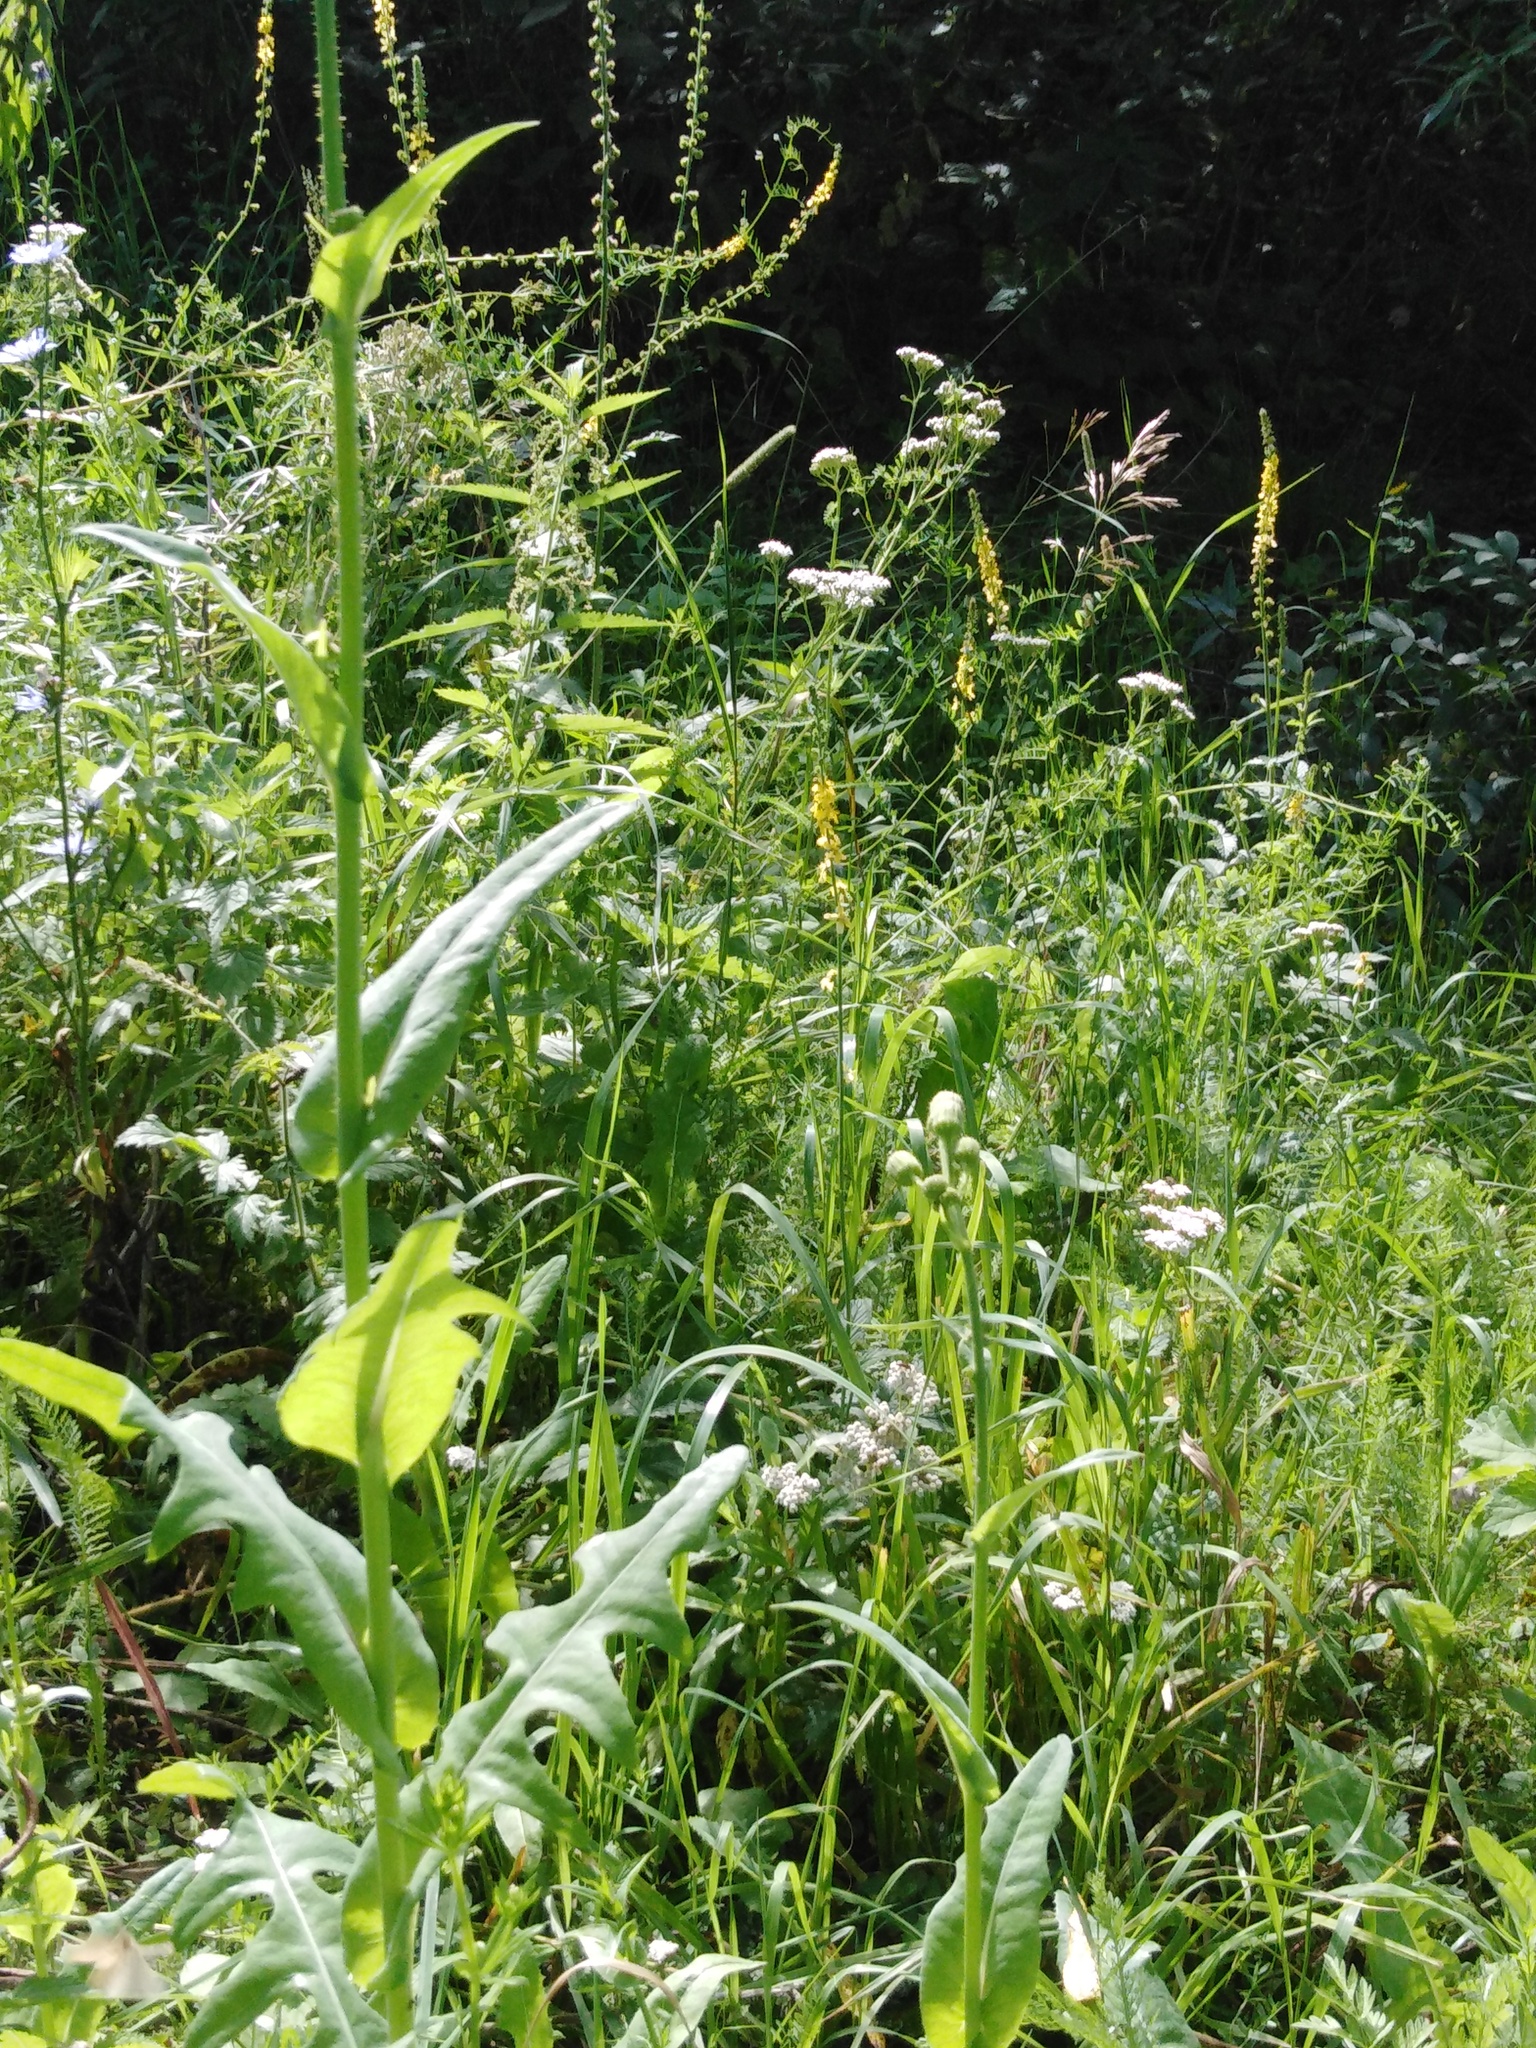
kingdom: Plantae
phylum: Tracheophyta
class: Magnoliopsida
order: Asterales
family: Asteraceae
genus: Sonchus
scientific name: Sonchus arvensis
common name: Perennial sow-thistle
